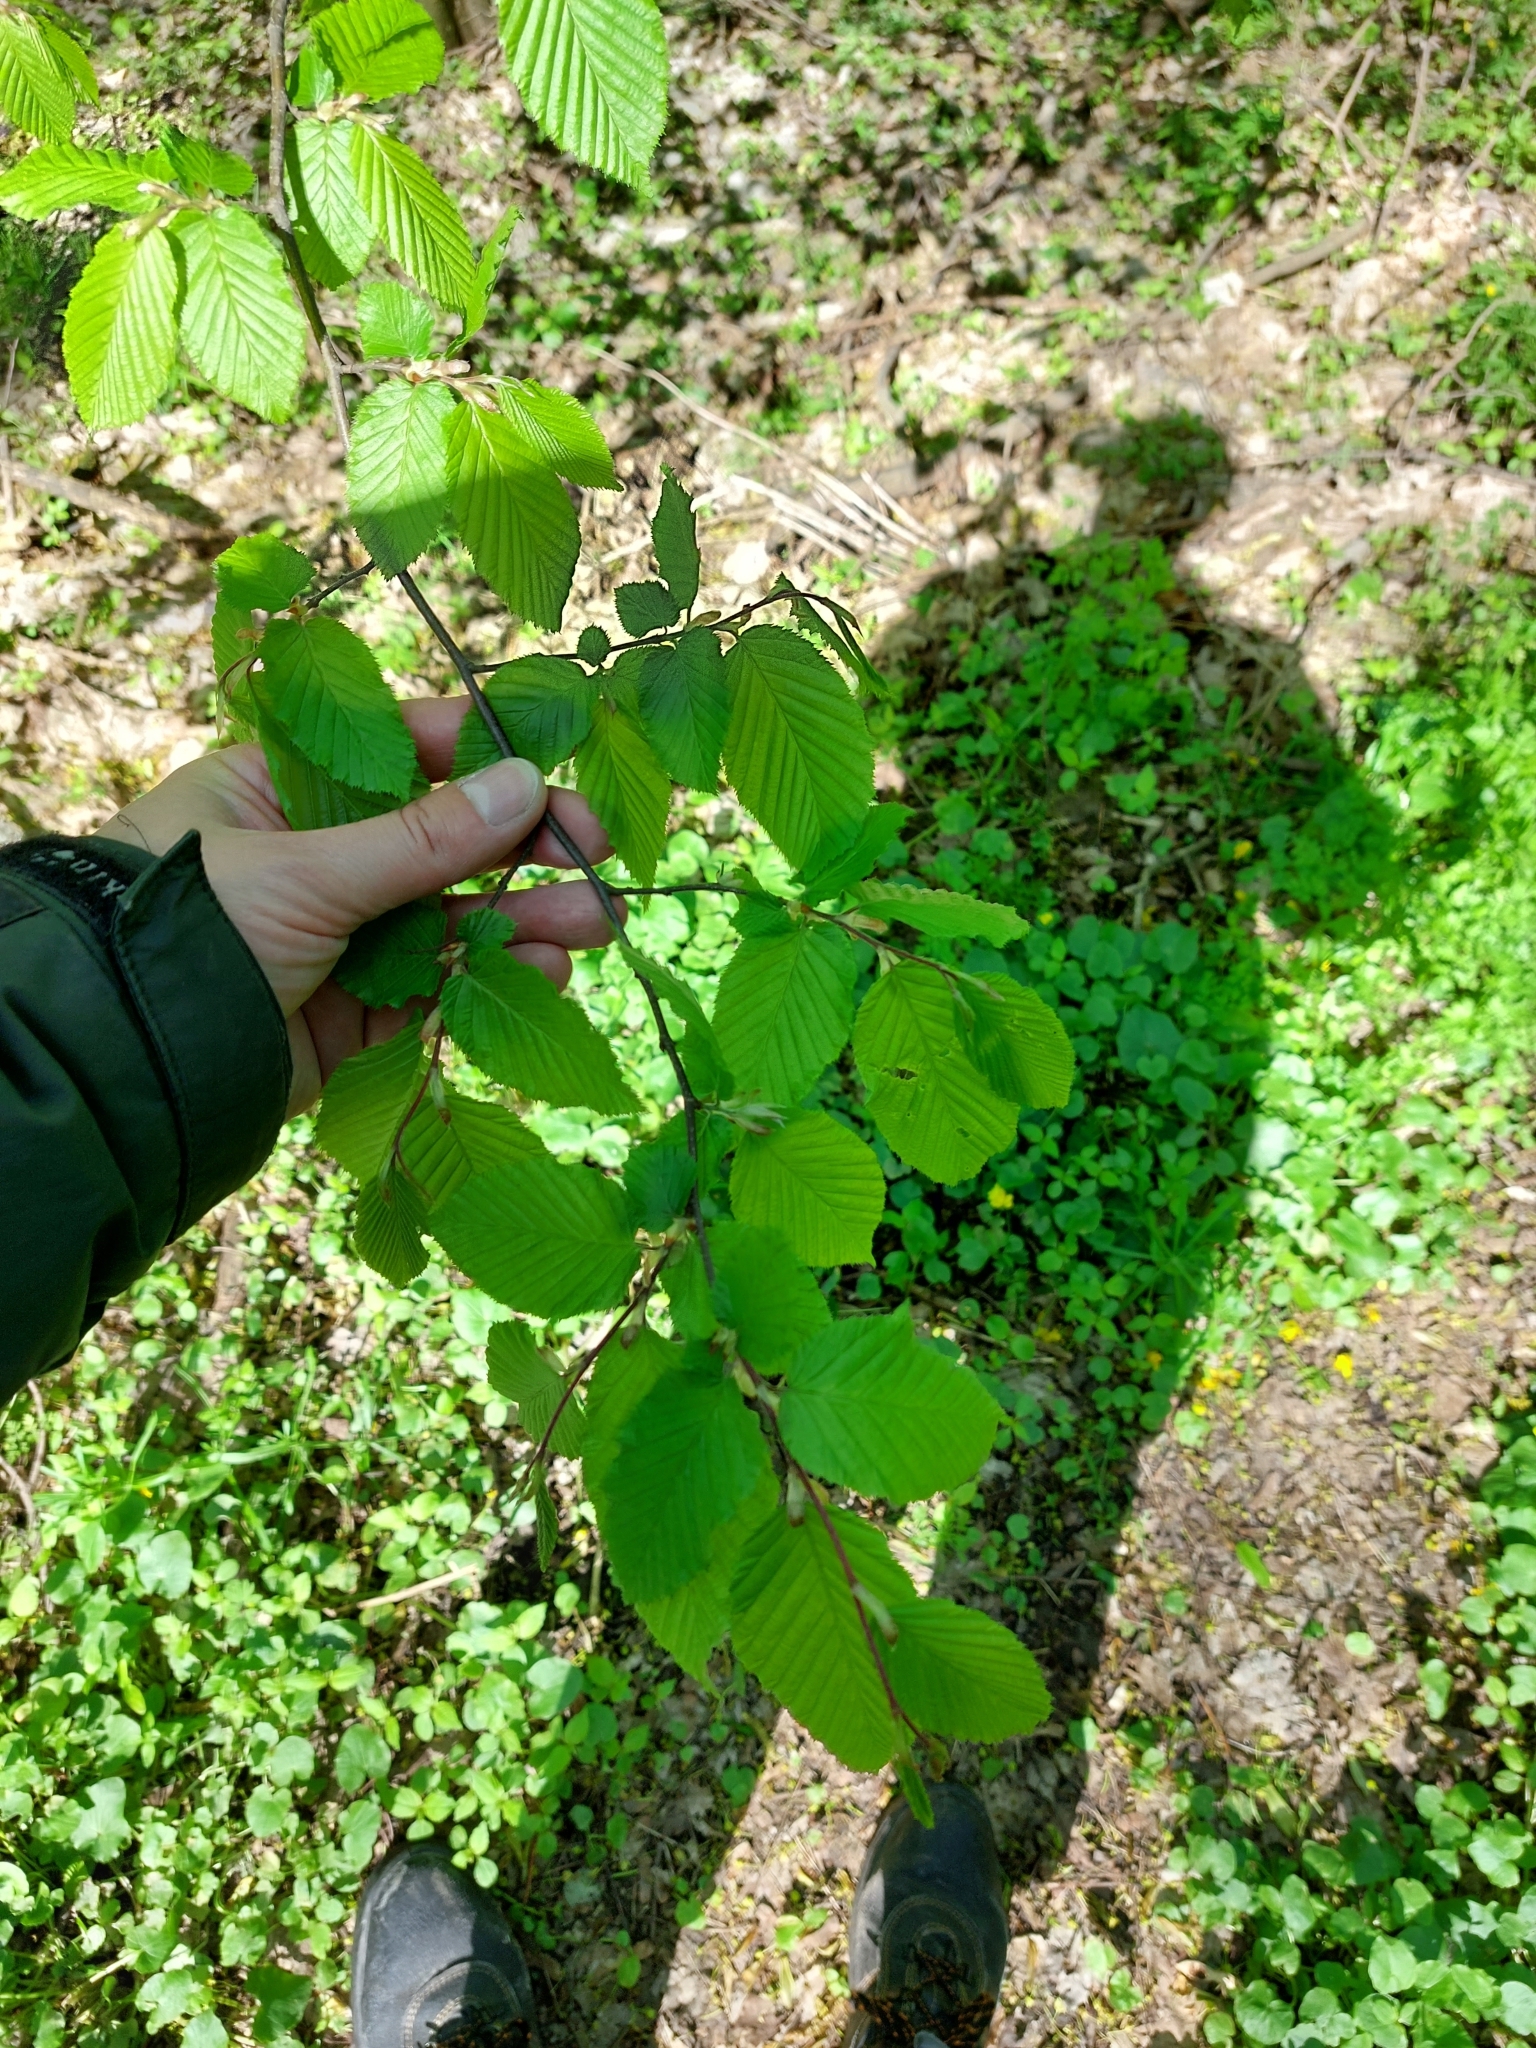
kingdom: Plantae
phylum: Tracheophyta
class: Magnoliopsida
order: Fagales
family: Betulaceae
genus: Carpinus
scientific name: Carpinus betulus
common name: Hornbeam
